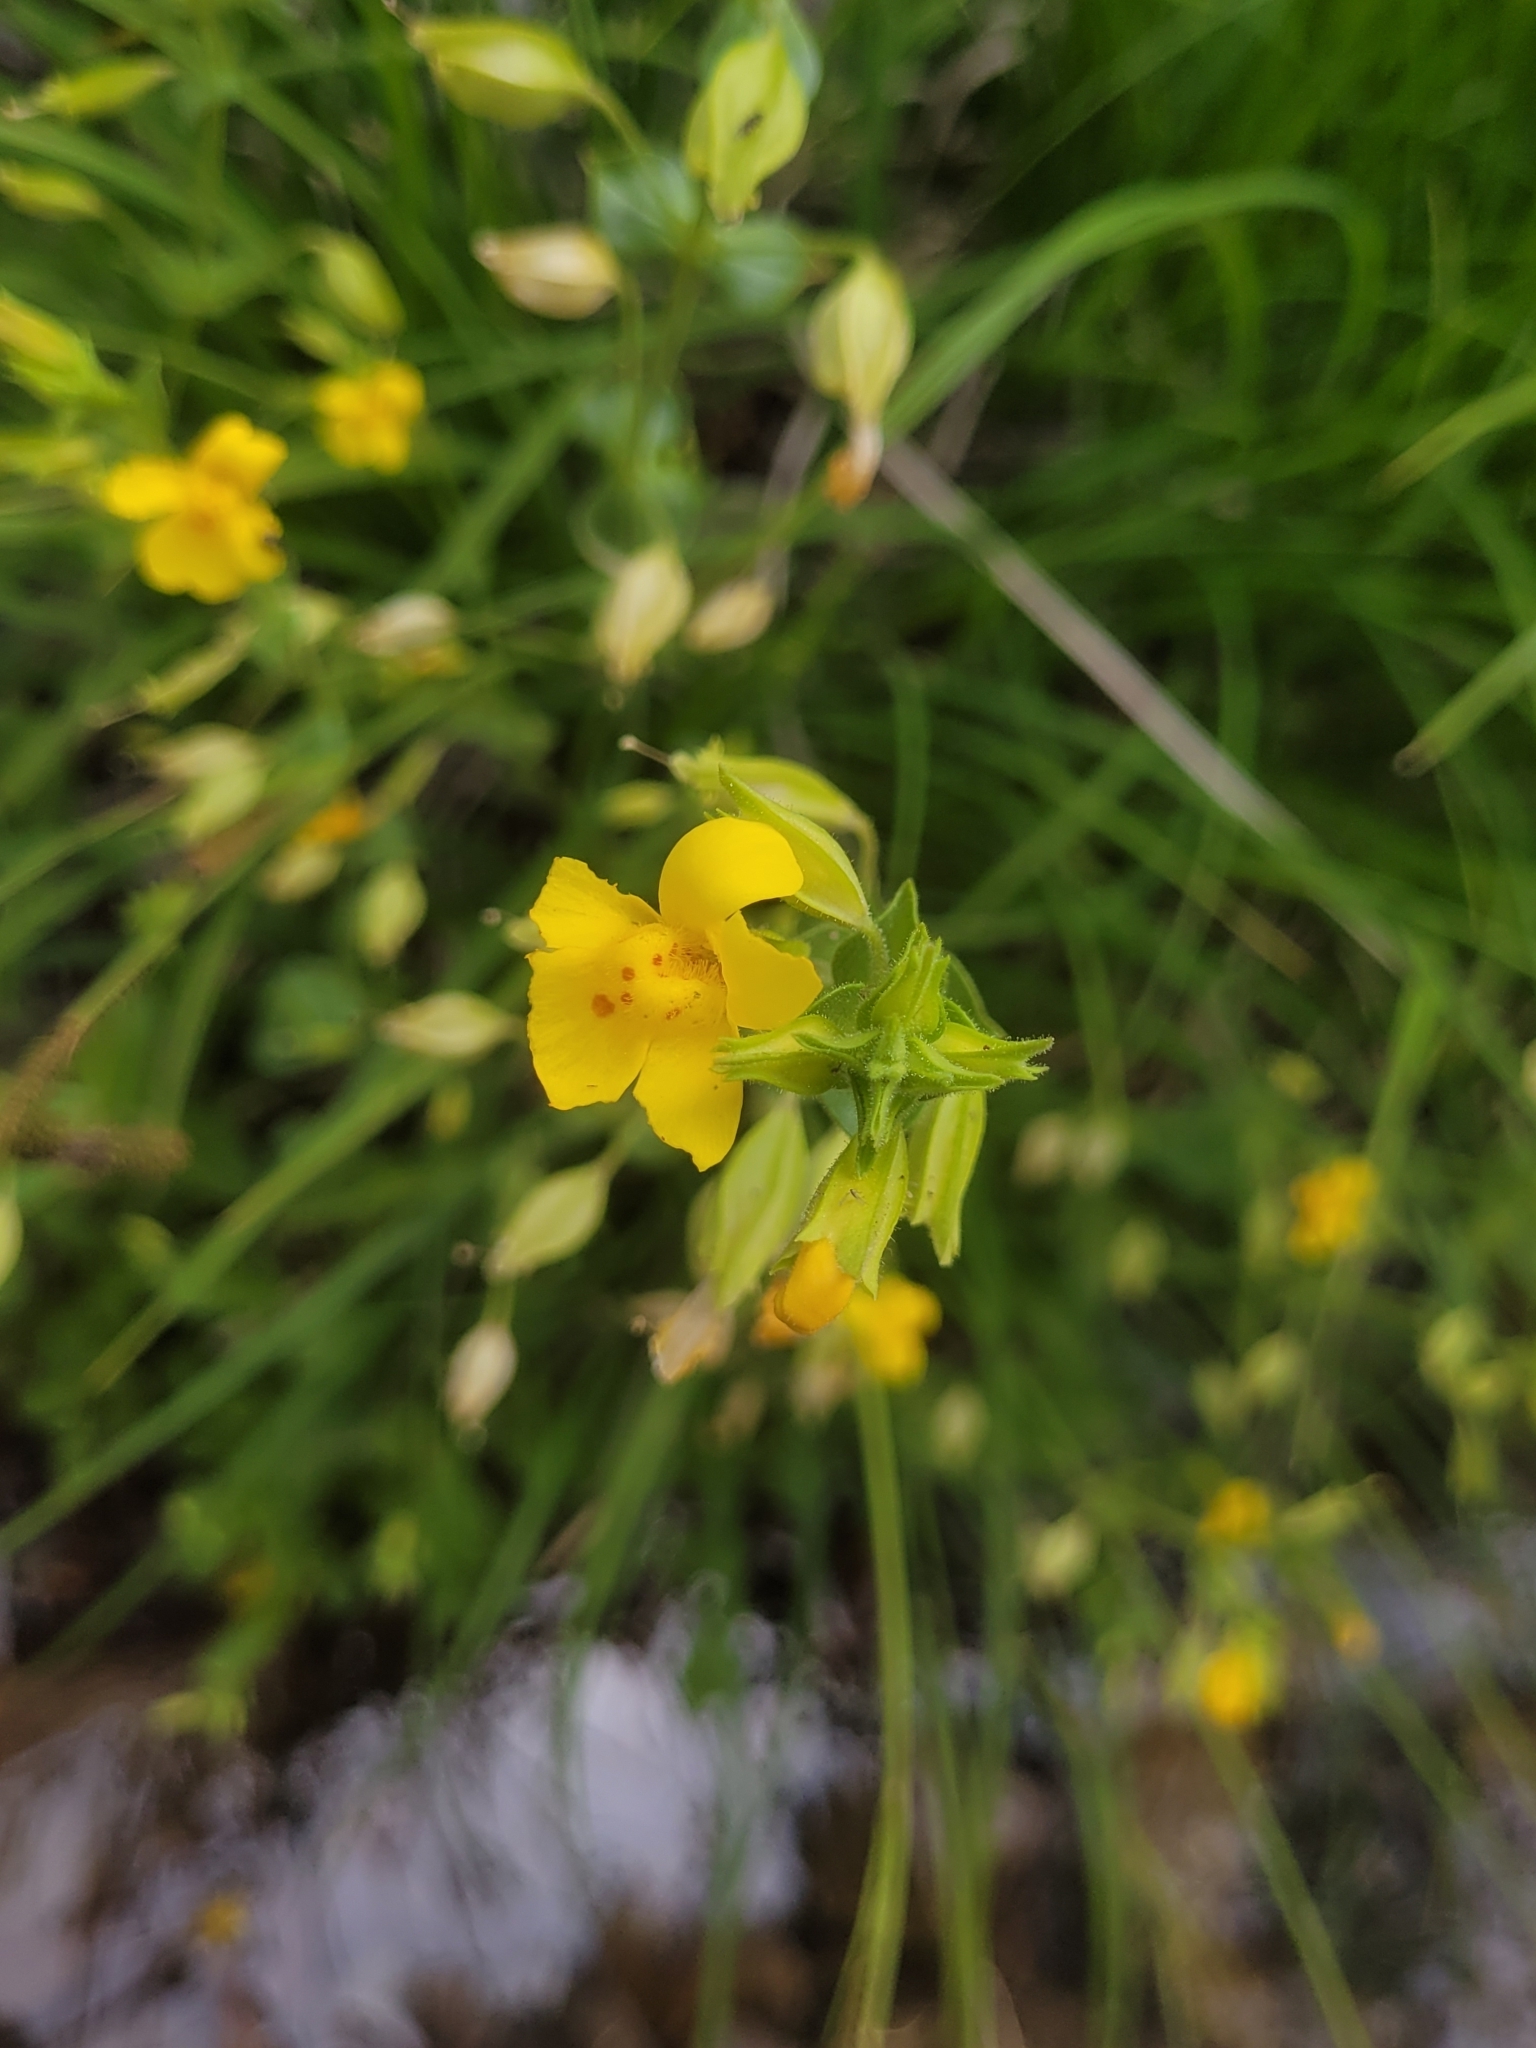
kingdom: Plantae
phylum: Tracheophyta
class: Magnoliopsida
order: Lamiales
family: Phrymaceae
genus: Erythranthe
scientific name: Erythranthe guttata
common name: Monkeyflower
